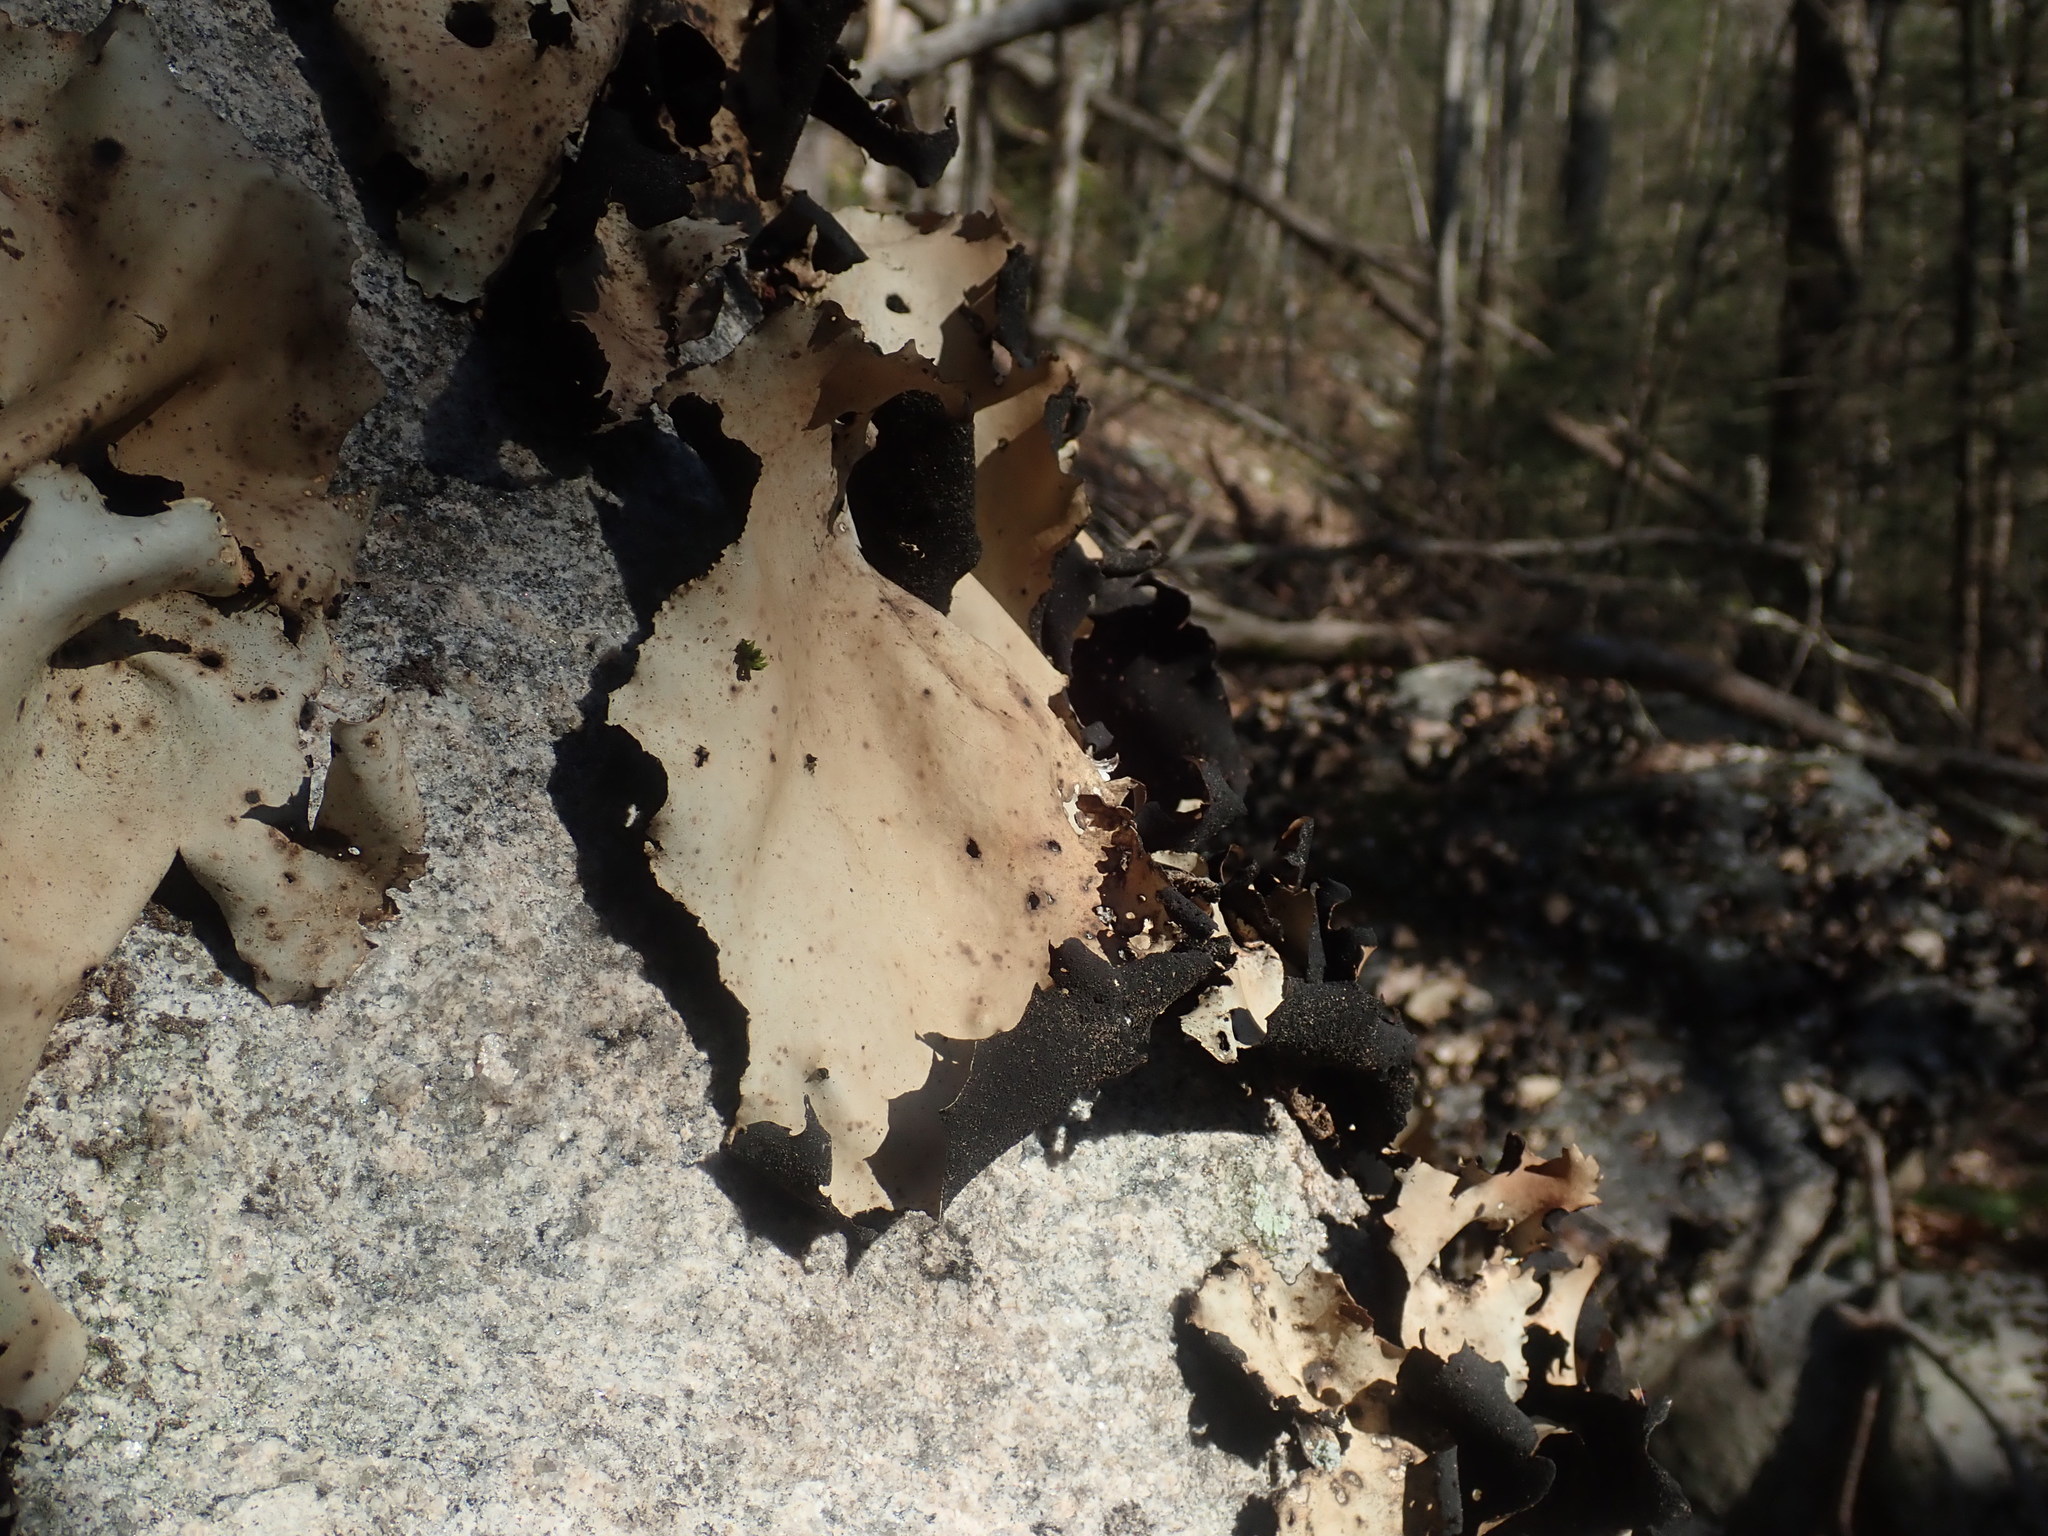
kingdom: Fungi
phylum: Ascomycota
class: Lecanoromycetes
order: Umbilicariales
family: Umbilicariaceae
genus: Umbilicaria
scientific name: Umbilicaria mammulata
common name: Smooth rock tripe
